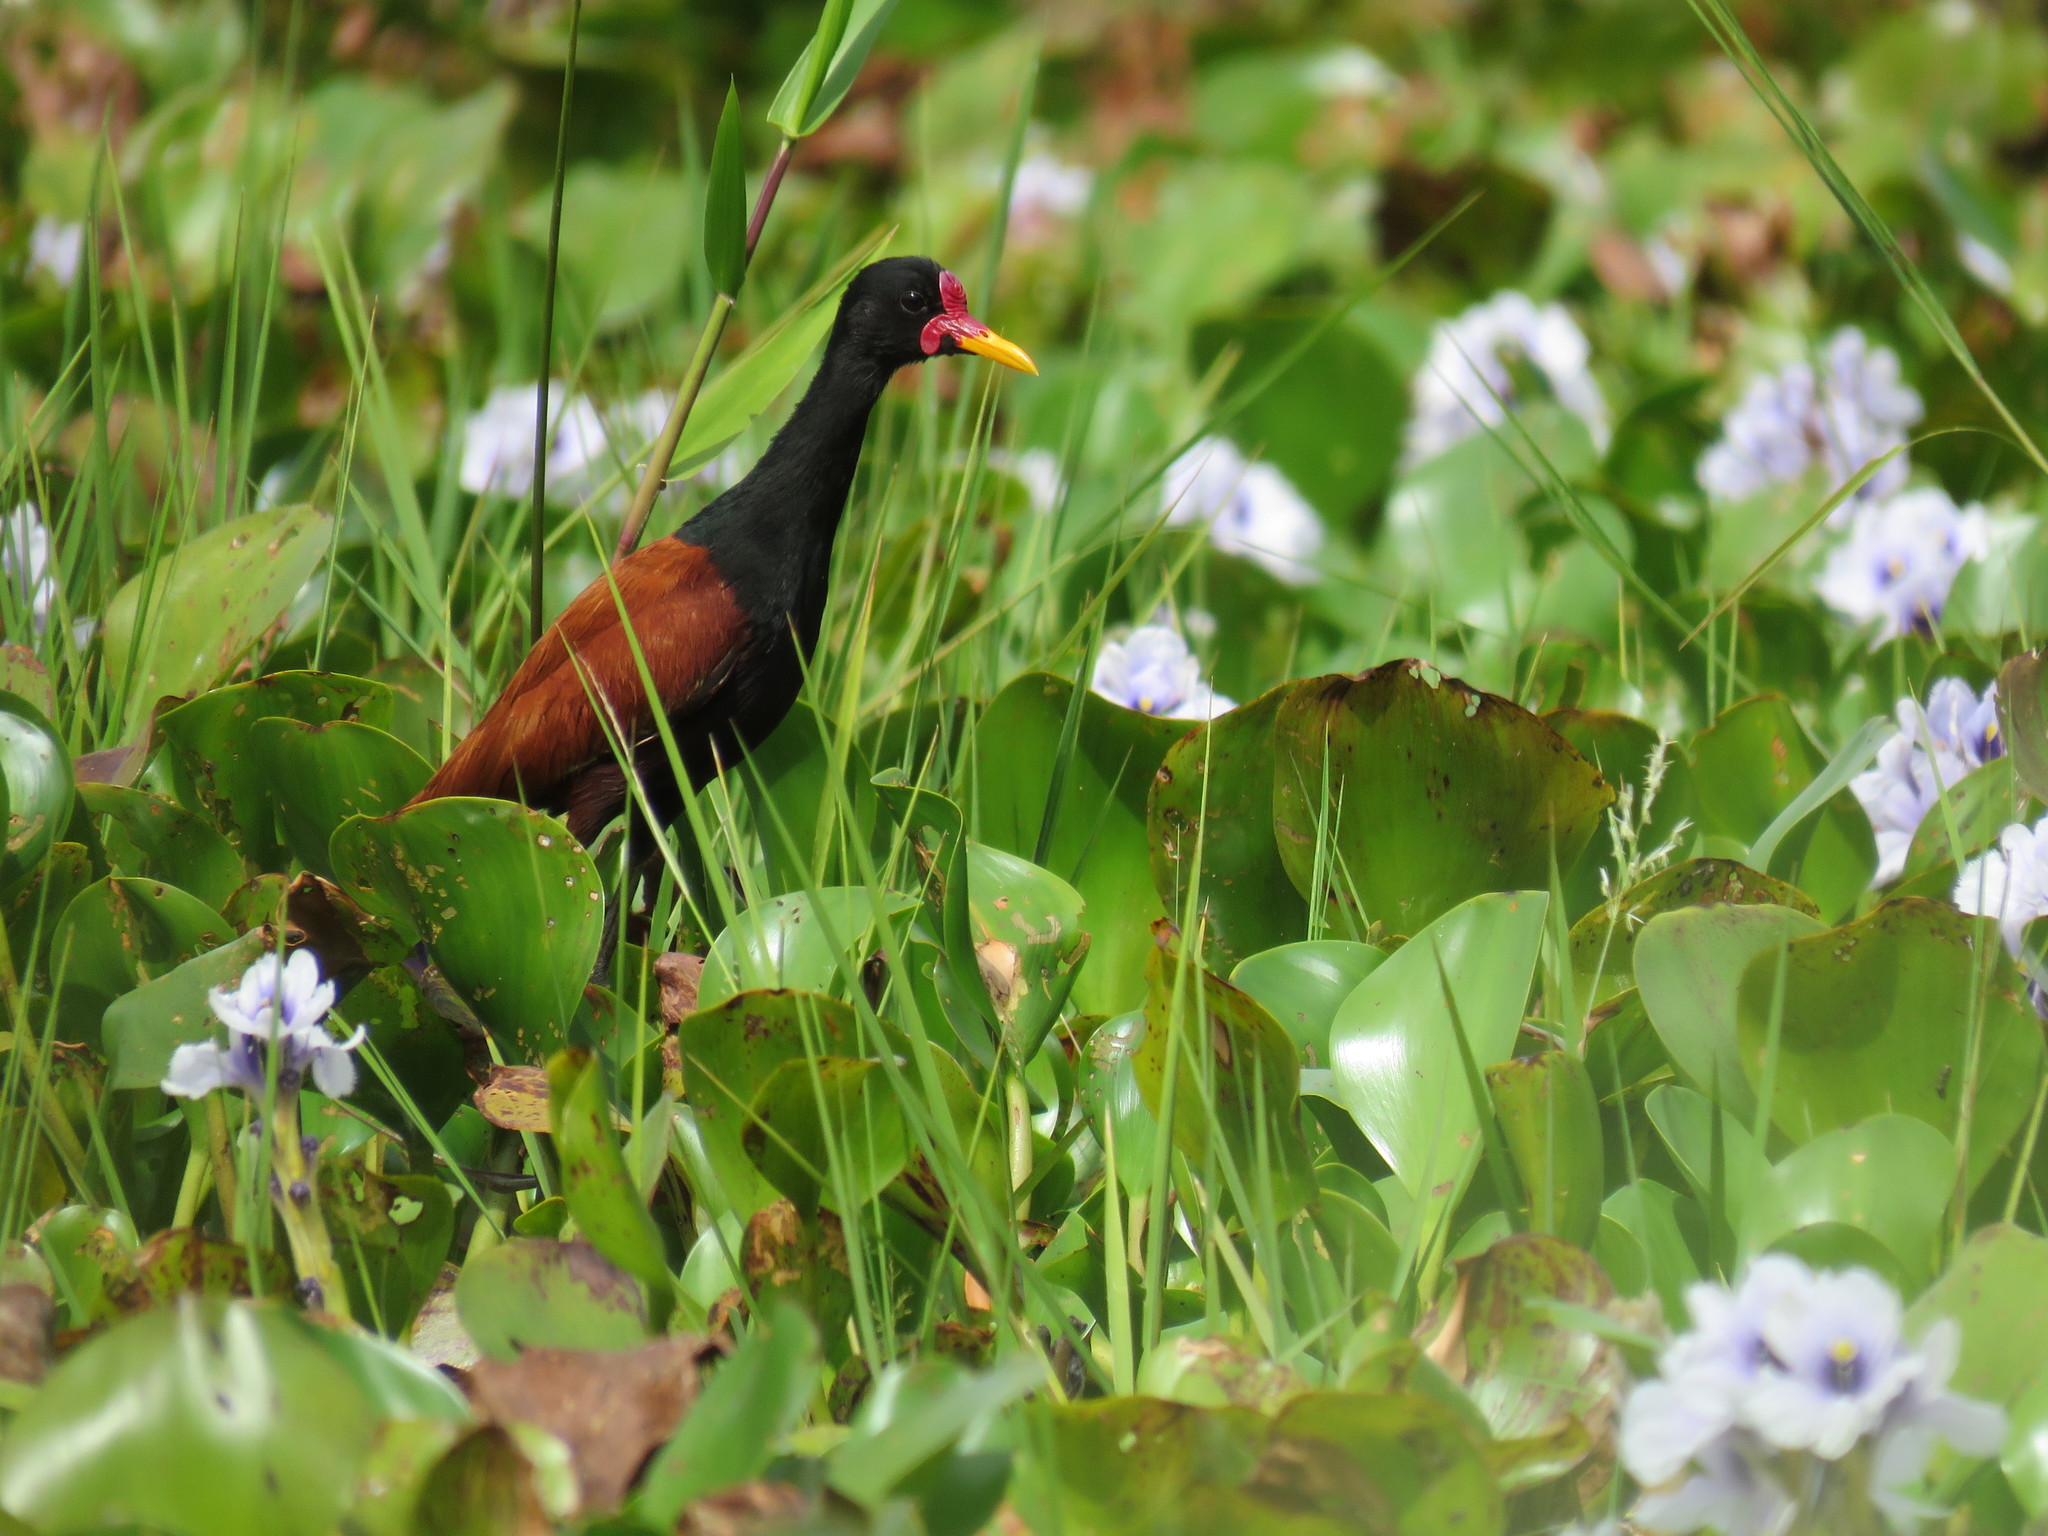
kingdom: Animalia
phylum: Chordata
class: Aves
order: Charadriiformes
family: Jacanidae
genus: Jacana
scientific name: Jacana jacana
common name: Wattled jacana
